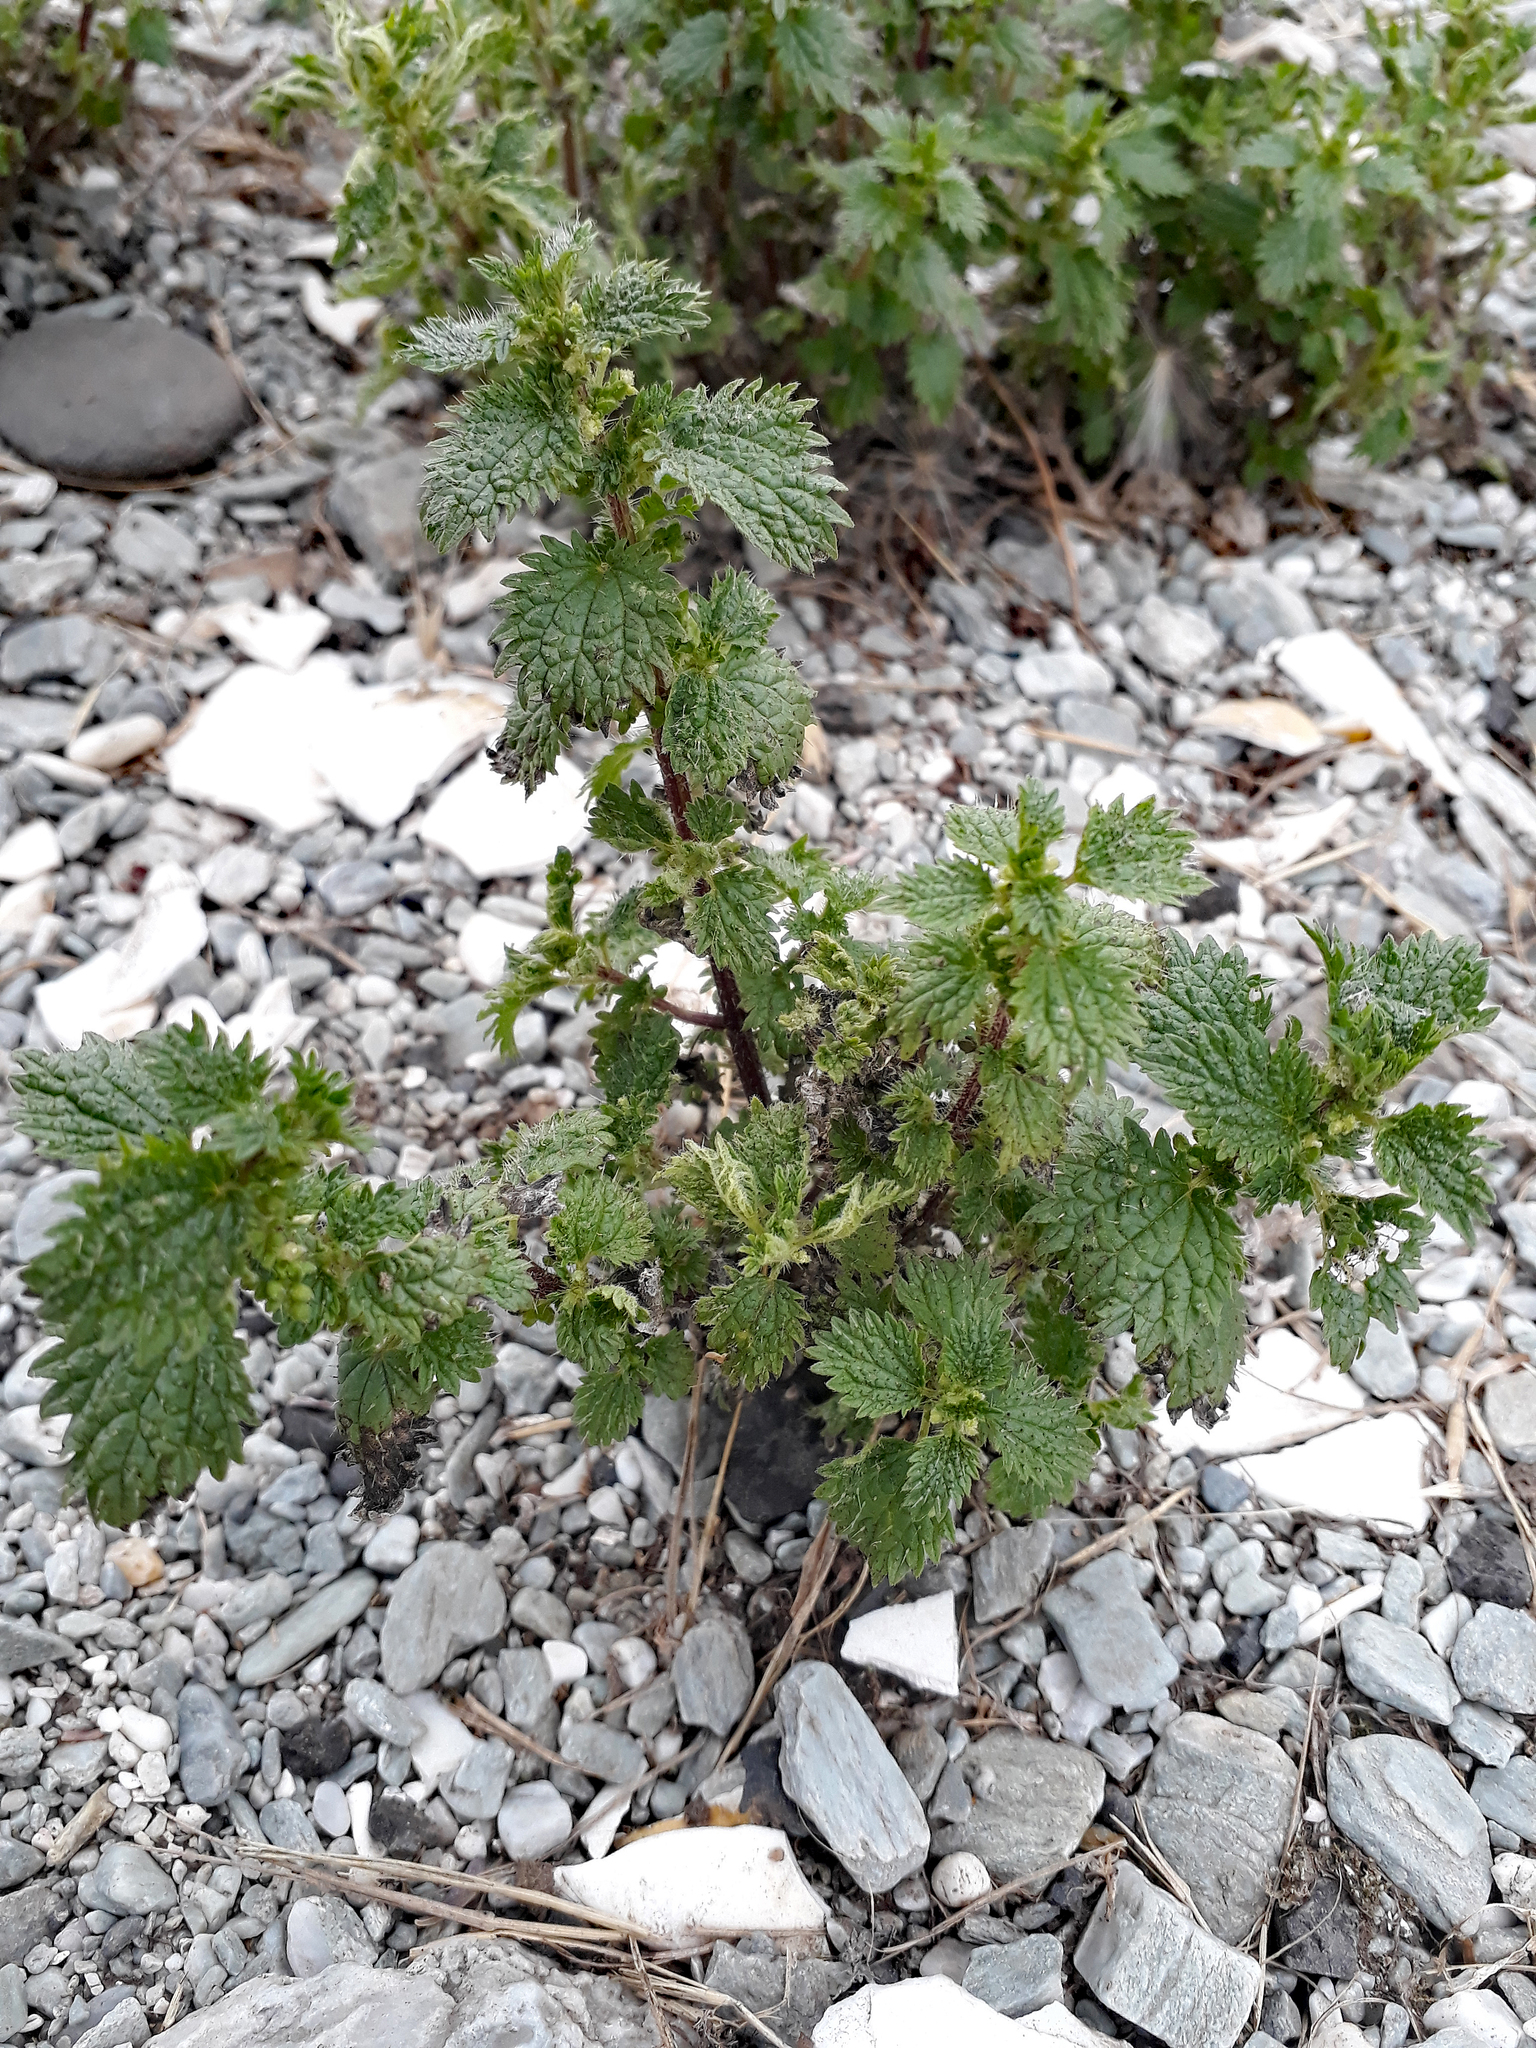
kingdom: Plantae
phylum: Tracheophyta
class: Magnoliopsida
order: Rosales
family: Urticaceae
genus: Urtica
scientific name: Urtica urens
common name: Dwarf nettle
